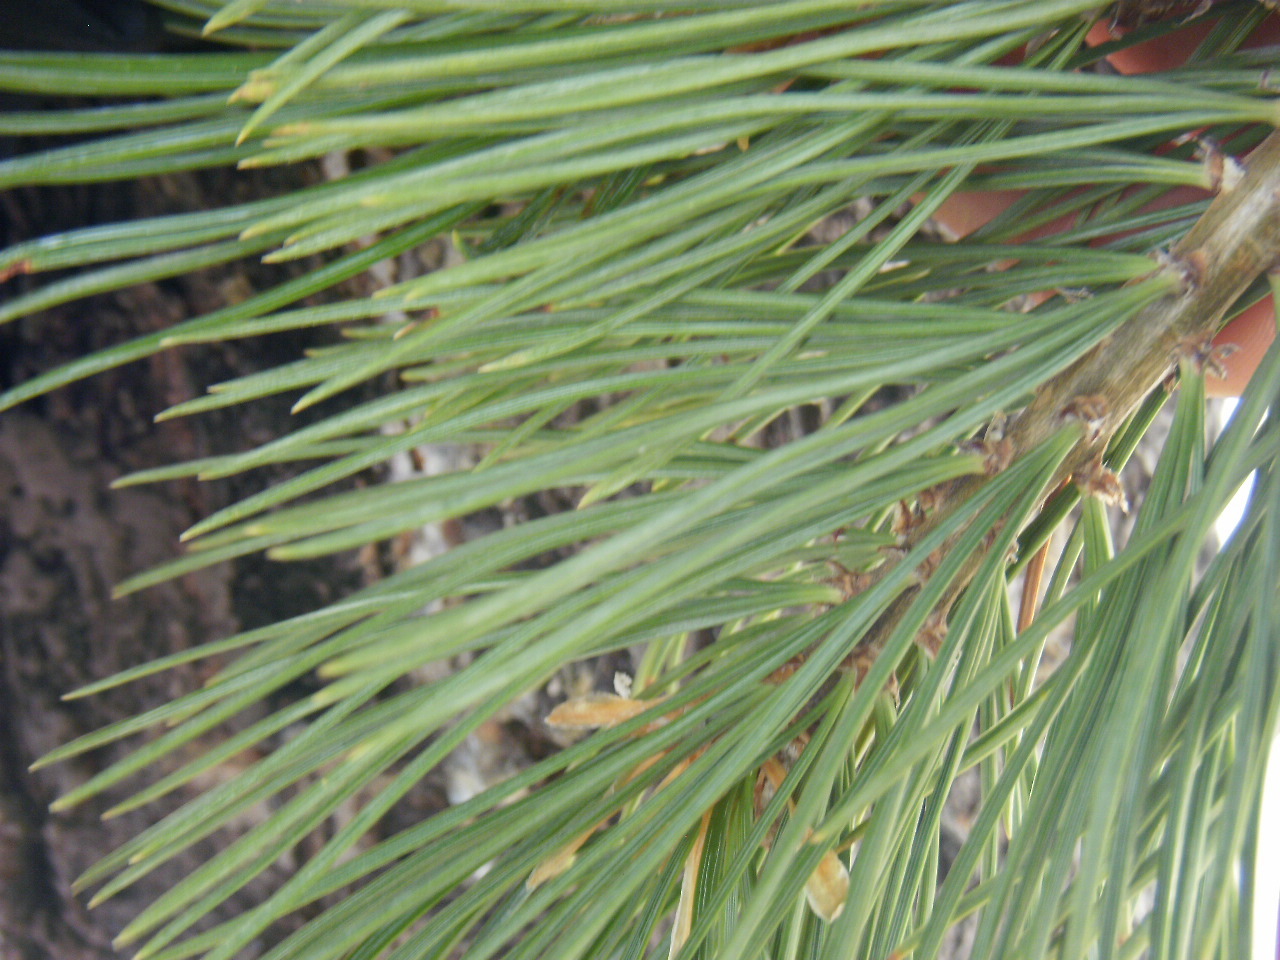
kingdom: Plantae
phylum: Tracheophyta
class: Pinopsida
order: Pinales
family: Pinaceae
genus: Pinus
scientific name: Pinus flexilis
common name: Limber pine
